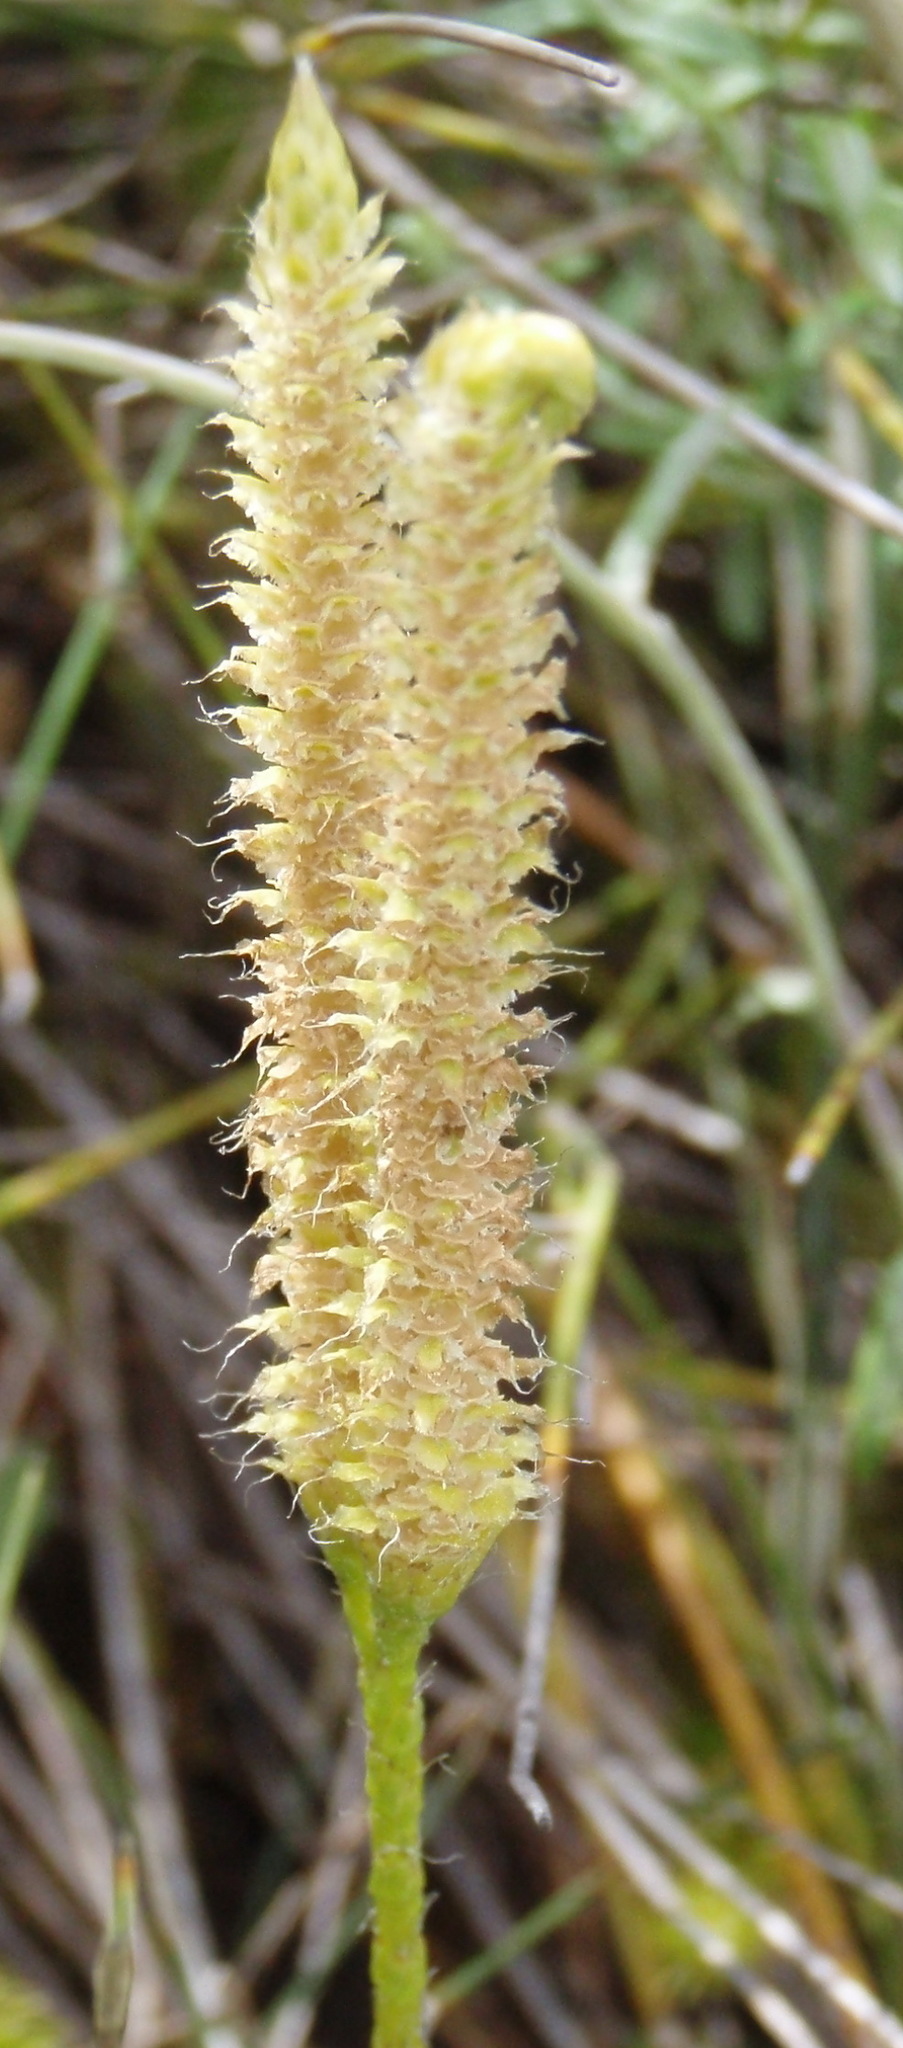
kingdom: Plantae
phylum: Tracheophyta
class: Lycopodiopsida
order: Lycopodiales
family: Lycopodiaceae
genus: Lycopodium
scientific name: Lycopodium clavatum
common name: Stag's-horn clubmoss
